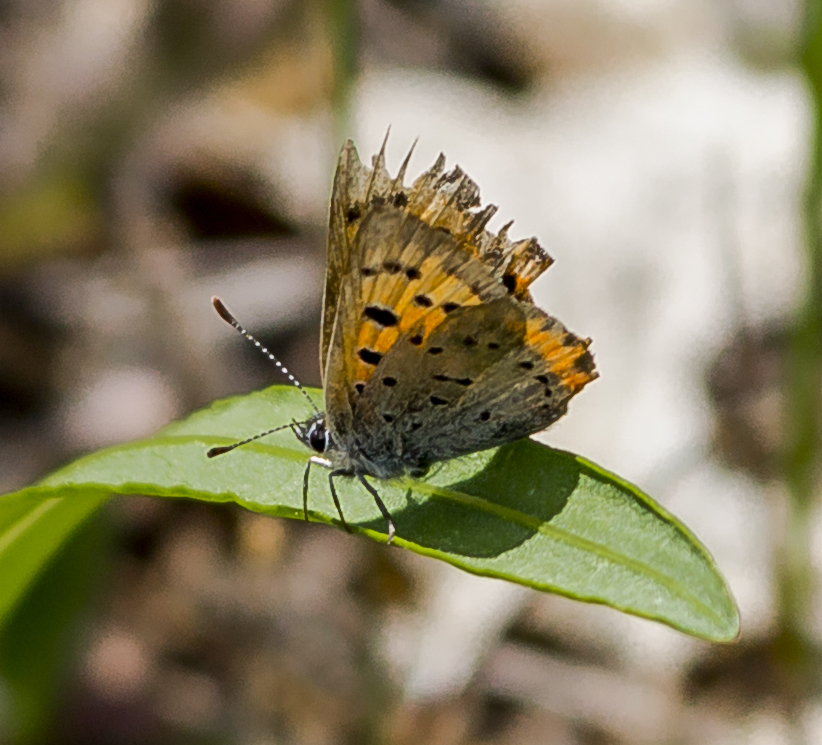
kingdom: Animalia
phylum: Arthropoda
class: Insecta
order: Lepidoptera
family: Lycaenidae
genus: Lycaena
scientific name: Lycaena hypophlaeas
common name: American copper
